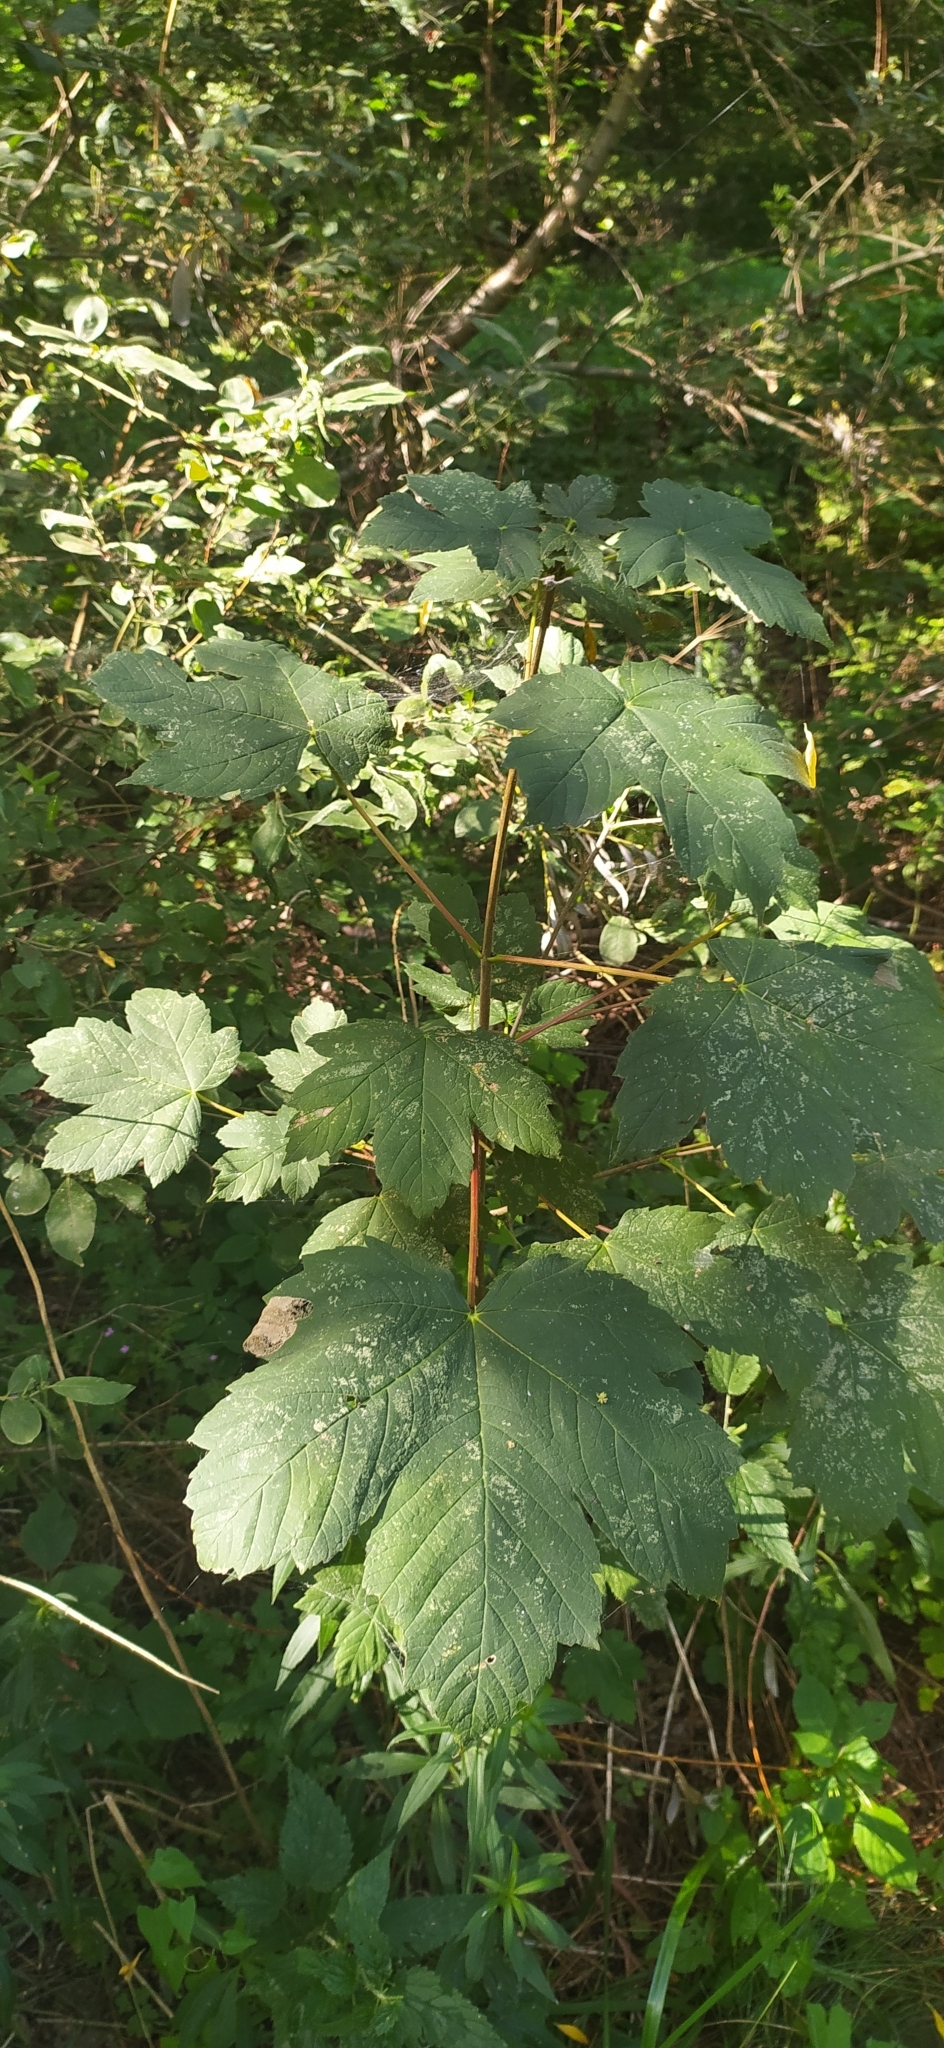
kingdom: Plantae
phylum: Tracheophyta
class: Magnoliopsida
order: Sapindales
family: Sapindaceae
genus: Acer
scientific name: Acer pseudoplatanus
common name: Sycamore
